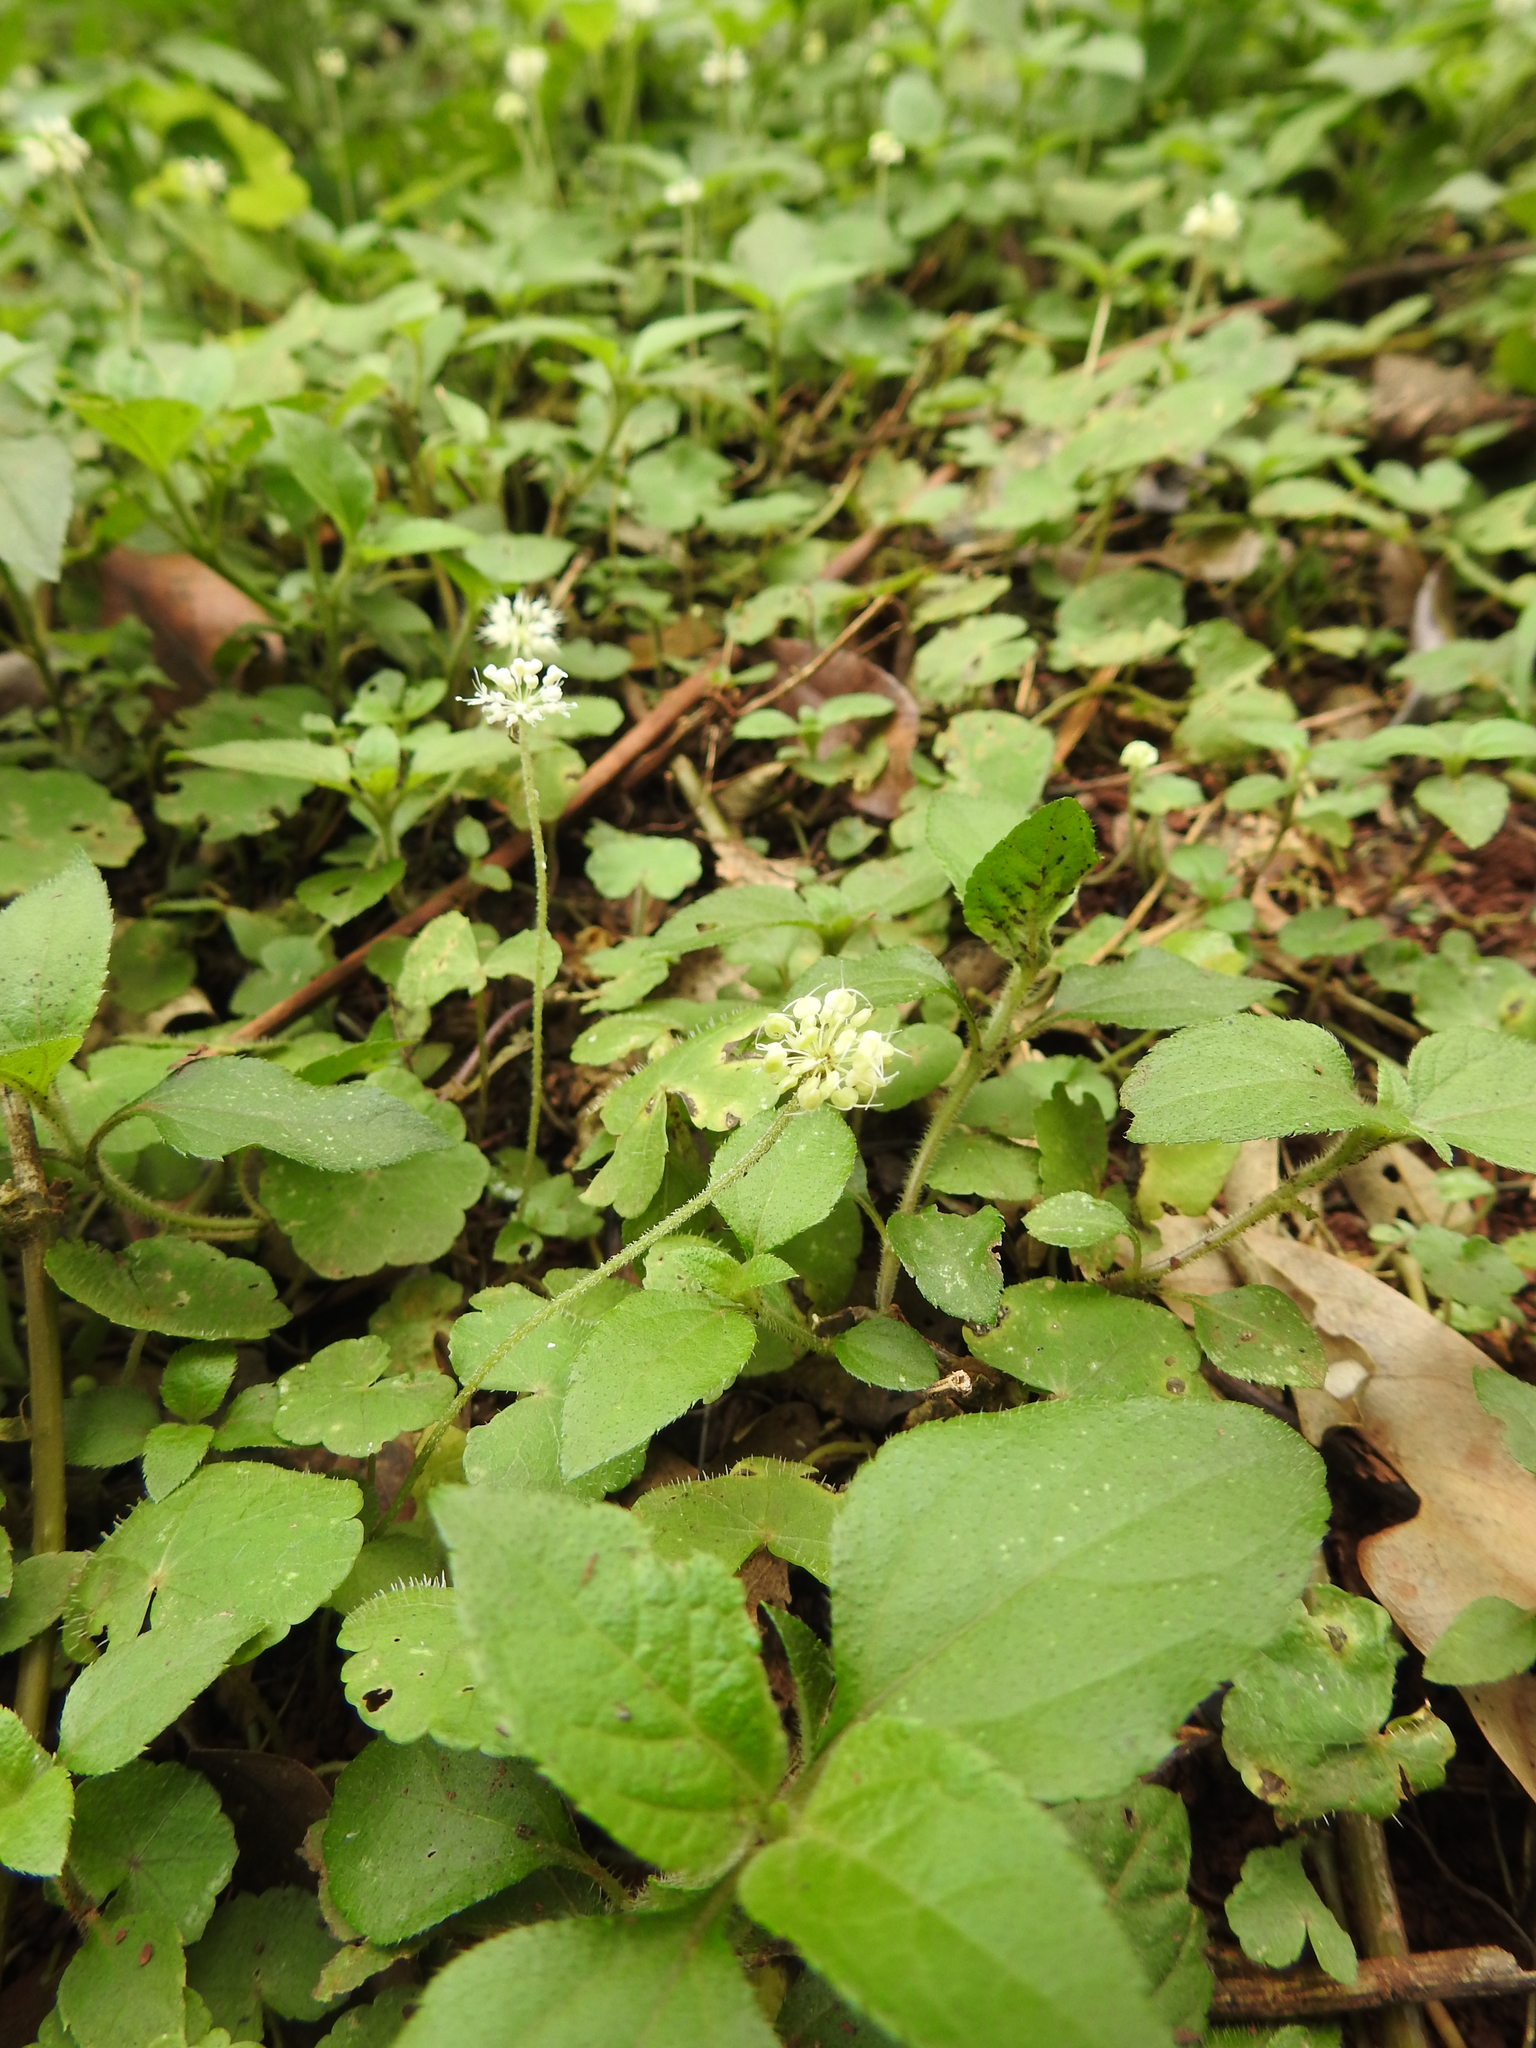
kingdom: Plantae
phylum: Tracheophyta
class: Magnoliopsida
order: Apiales
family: Araliaceae
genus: Hydrocotyle
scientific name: Hydrocotyle leucocephala
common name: Brazilian pennywort
